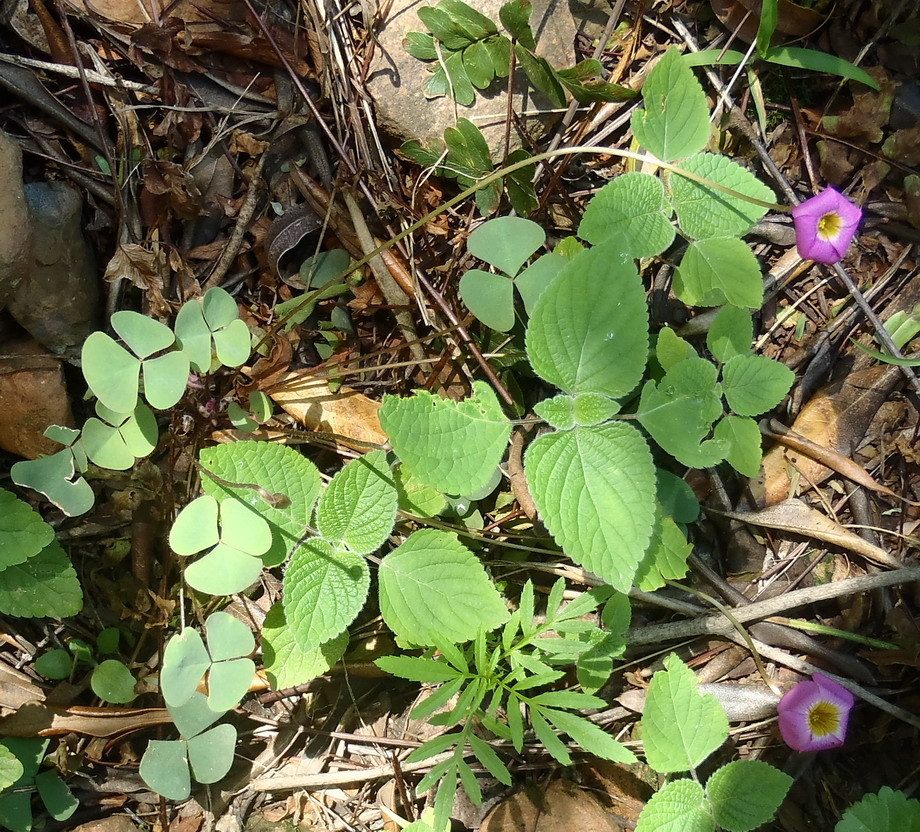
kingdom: Plantae
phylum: Tracheophyta
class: Magnoliopsida
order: Oxalidales
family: Oxalidaceae
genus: Oxalis
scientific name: Oxalis obliquifolia
